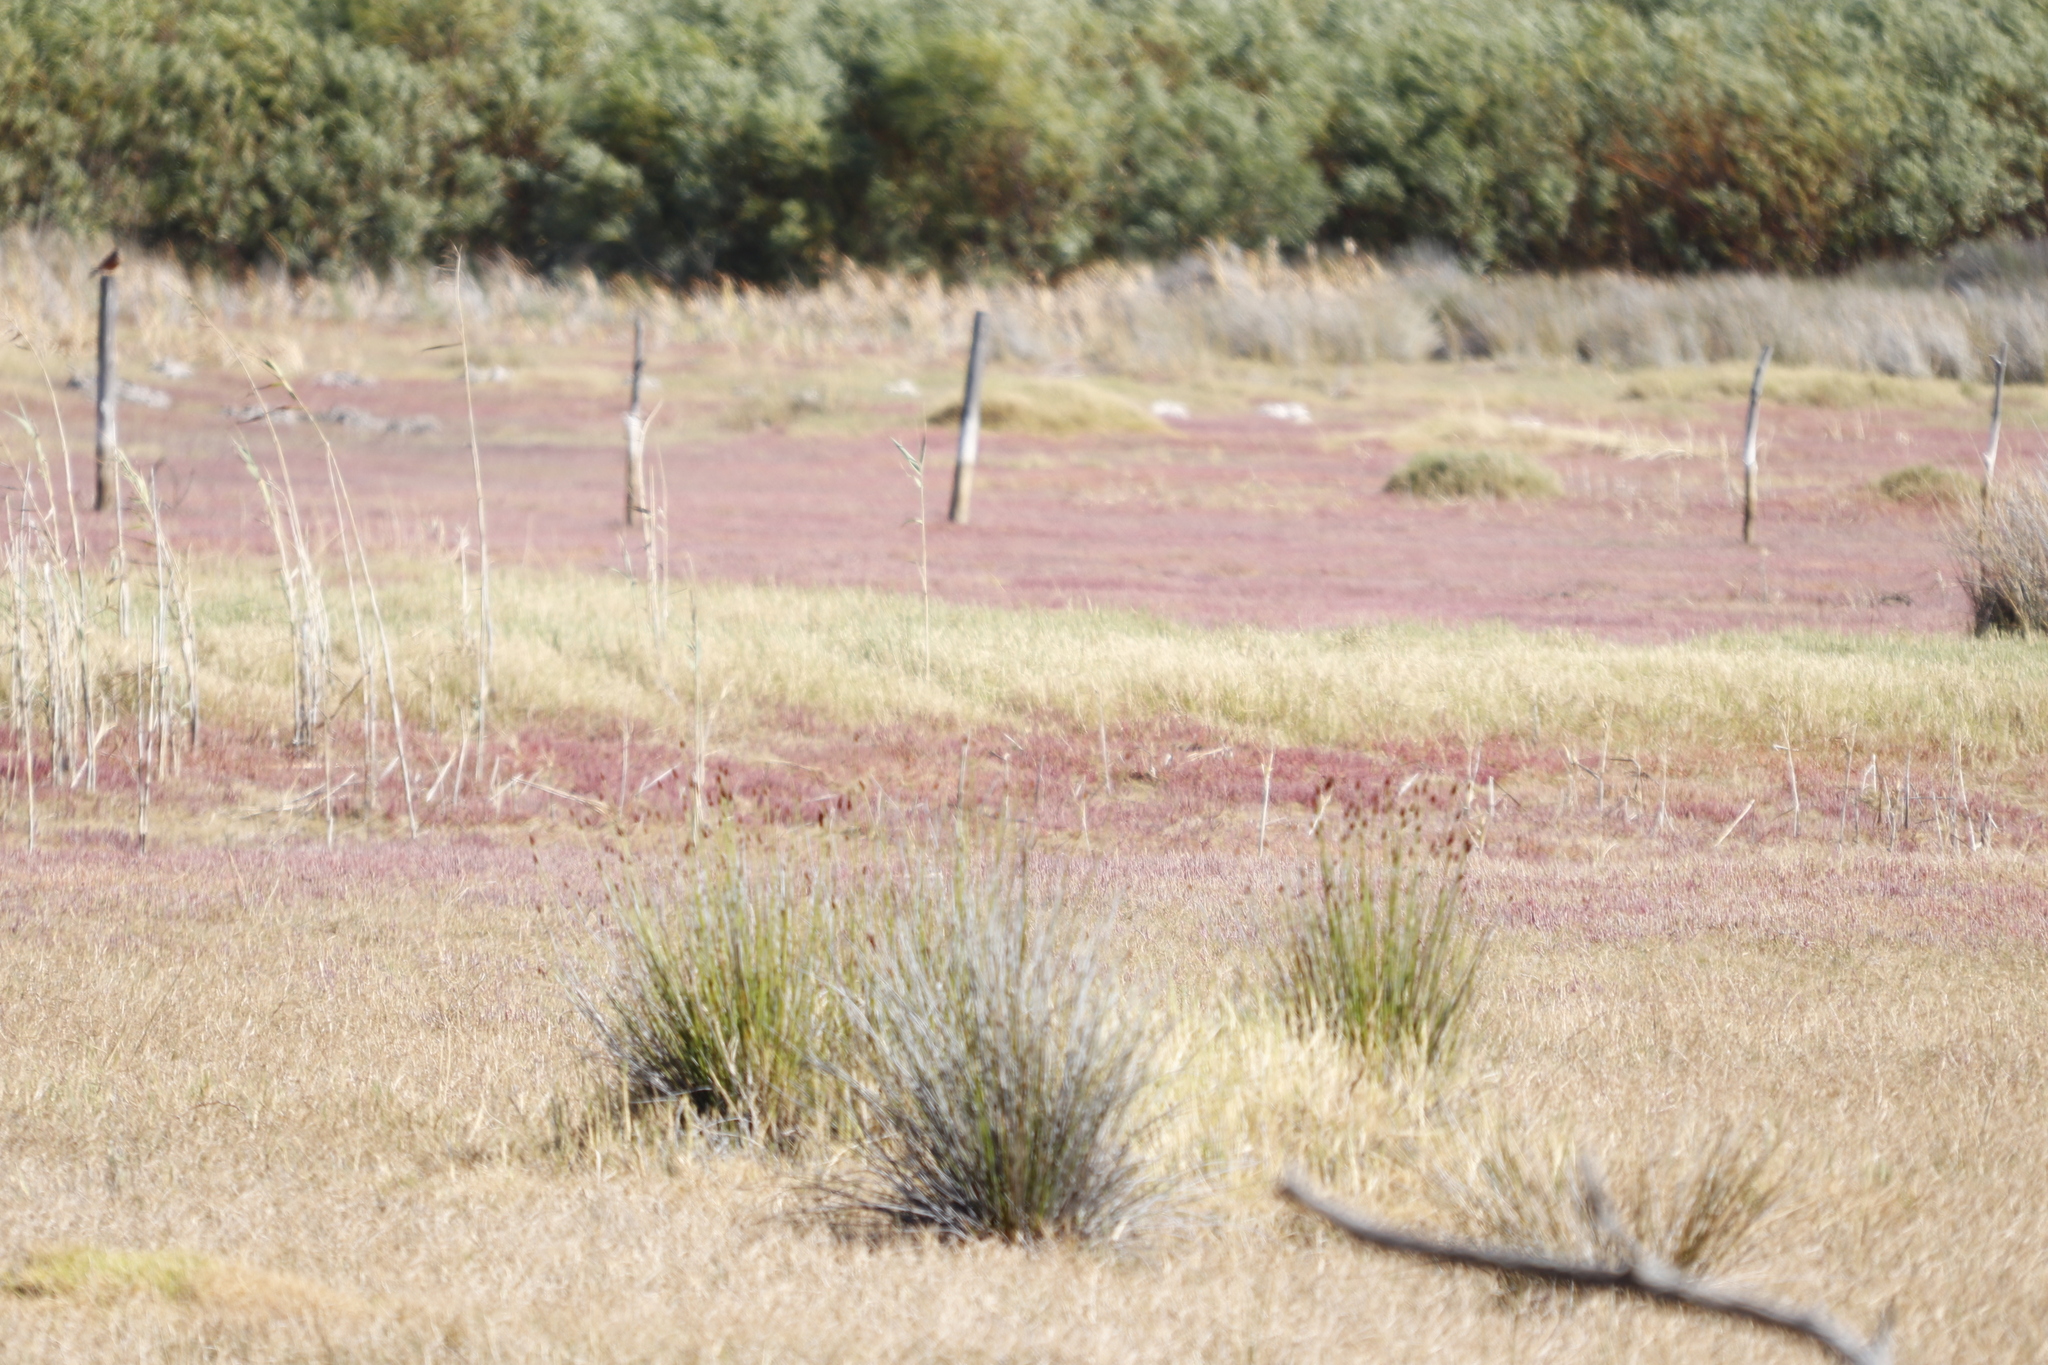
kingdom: Plantae
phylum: Tracheophyta
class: Magnoliopsida
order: Caryophyllales
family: Amaranthaceae
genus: Salicornia
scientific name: Salicornia natalensis
